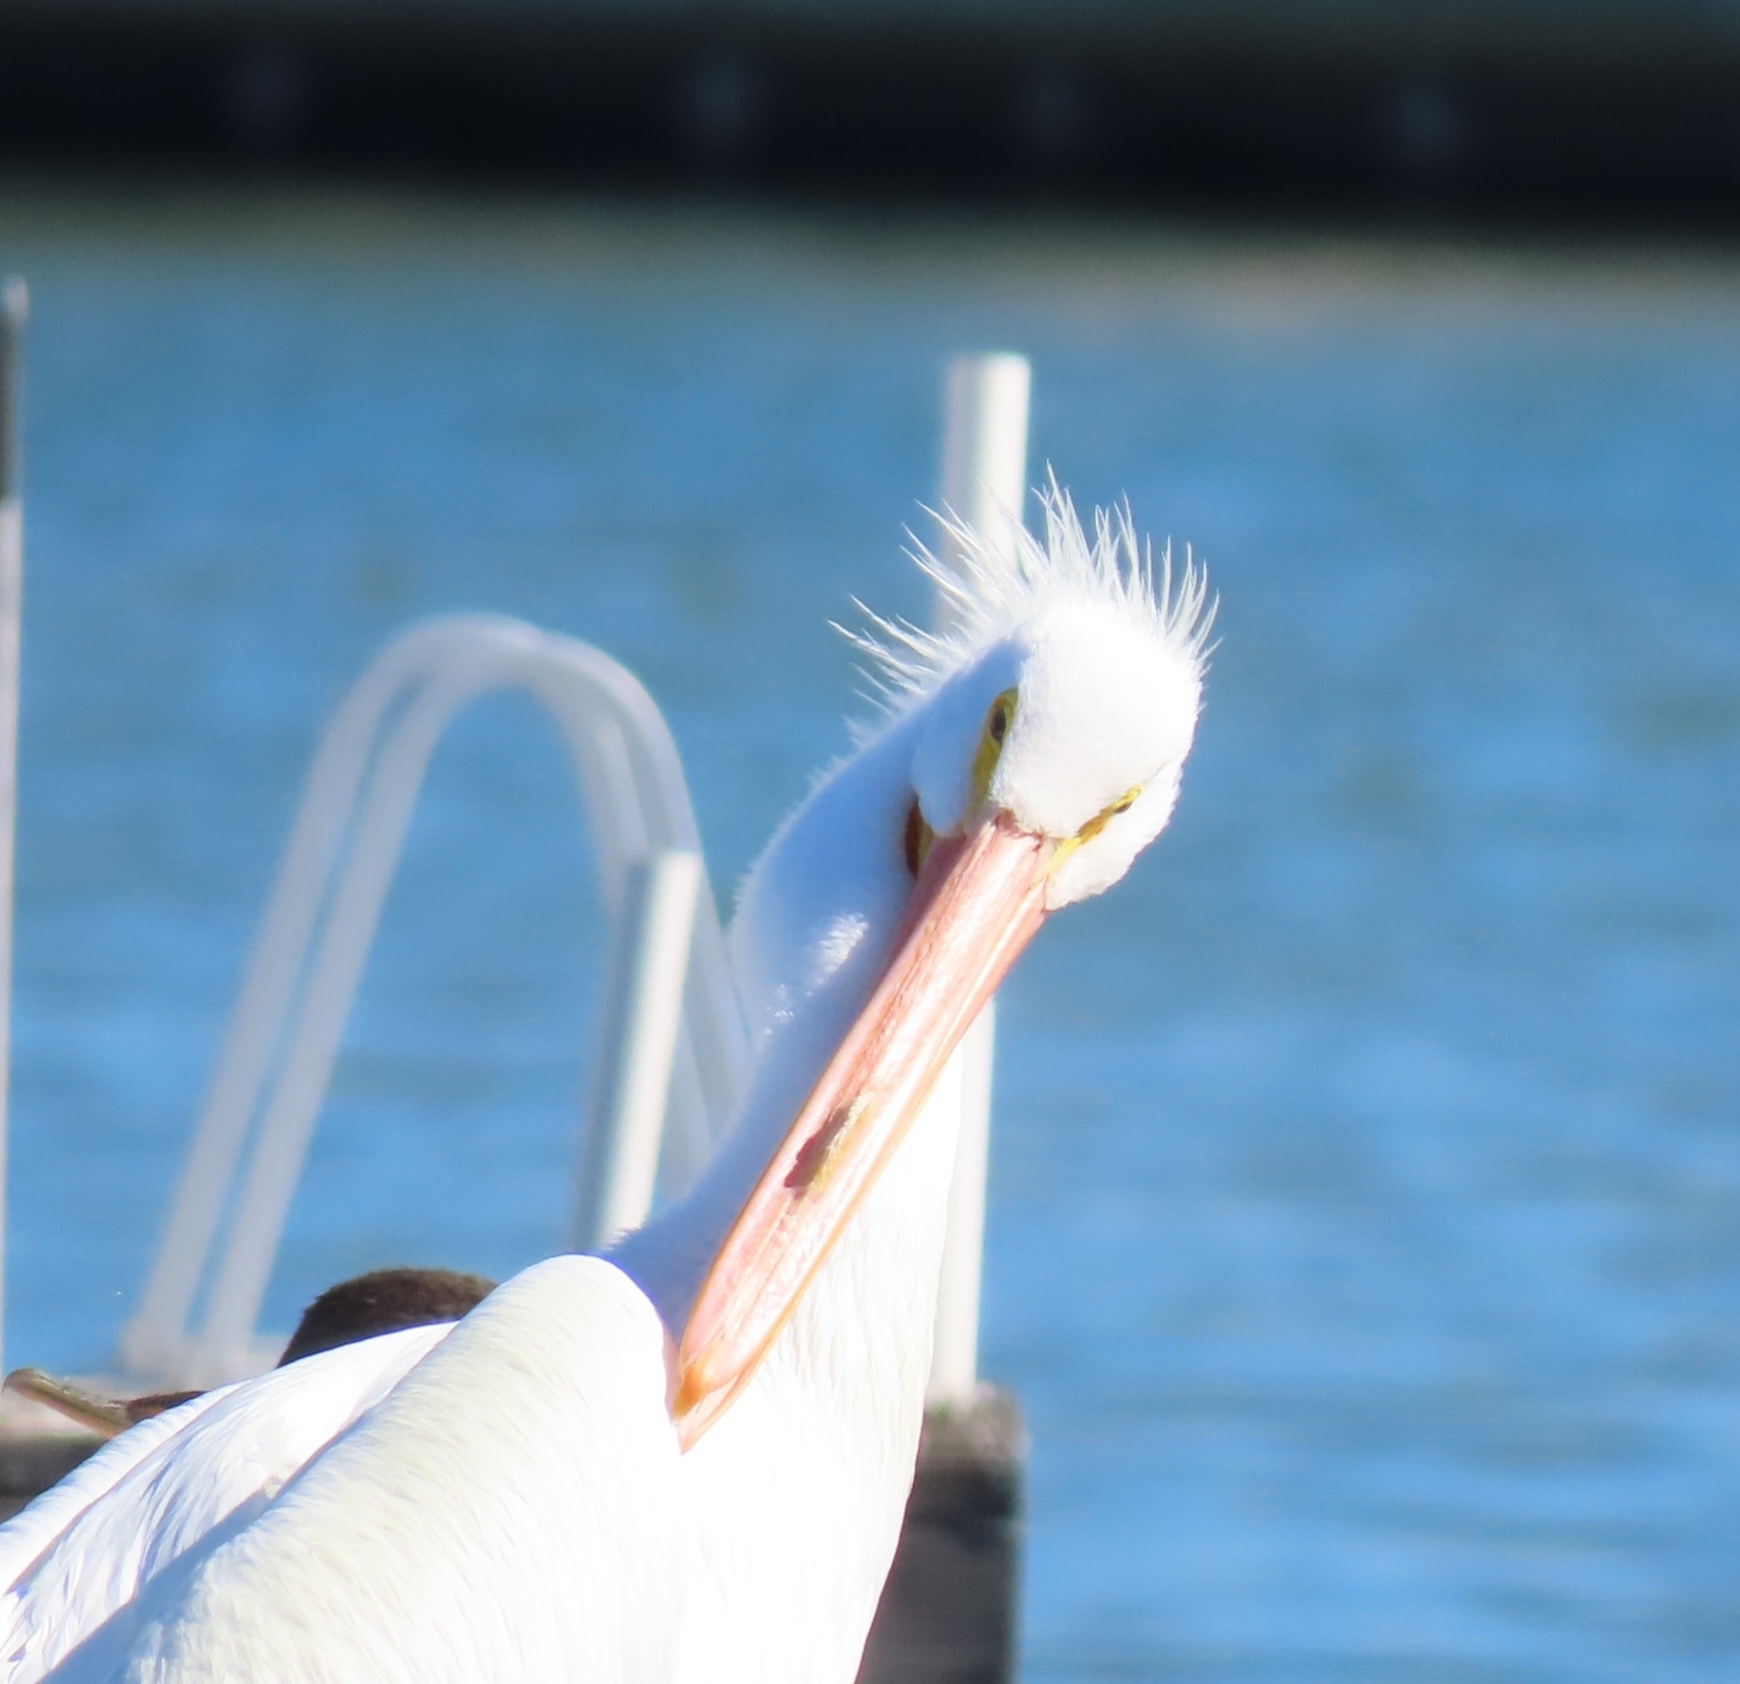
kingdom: Animalia
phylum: Chordata
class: Aves
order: Pelecaniformes
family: Pelecanidae
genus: Pelecanus
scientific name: Pelecanus erythrorhynchos
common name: American white pelican
